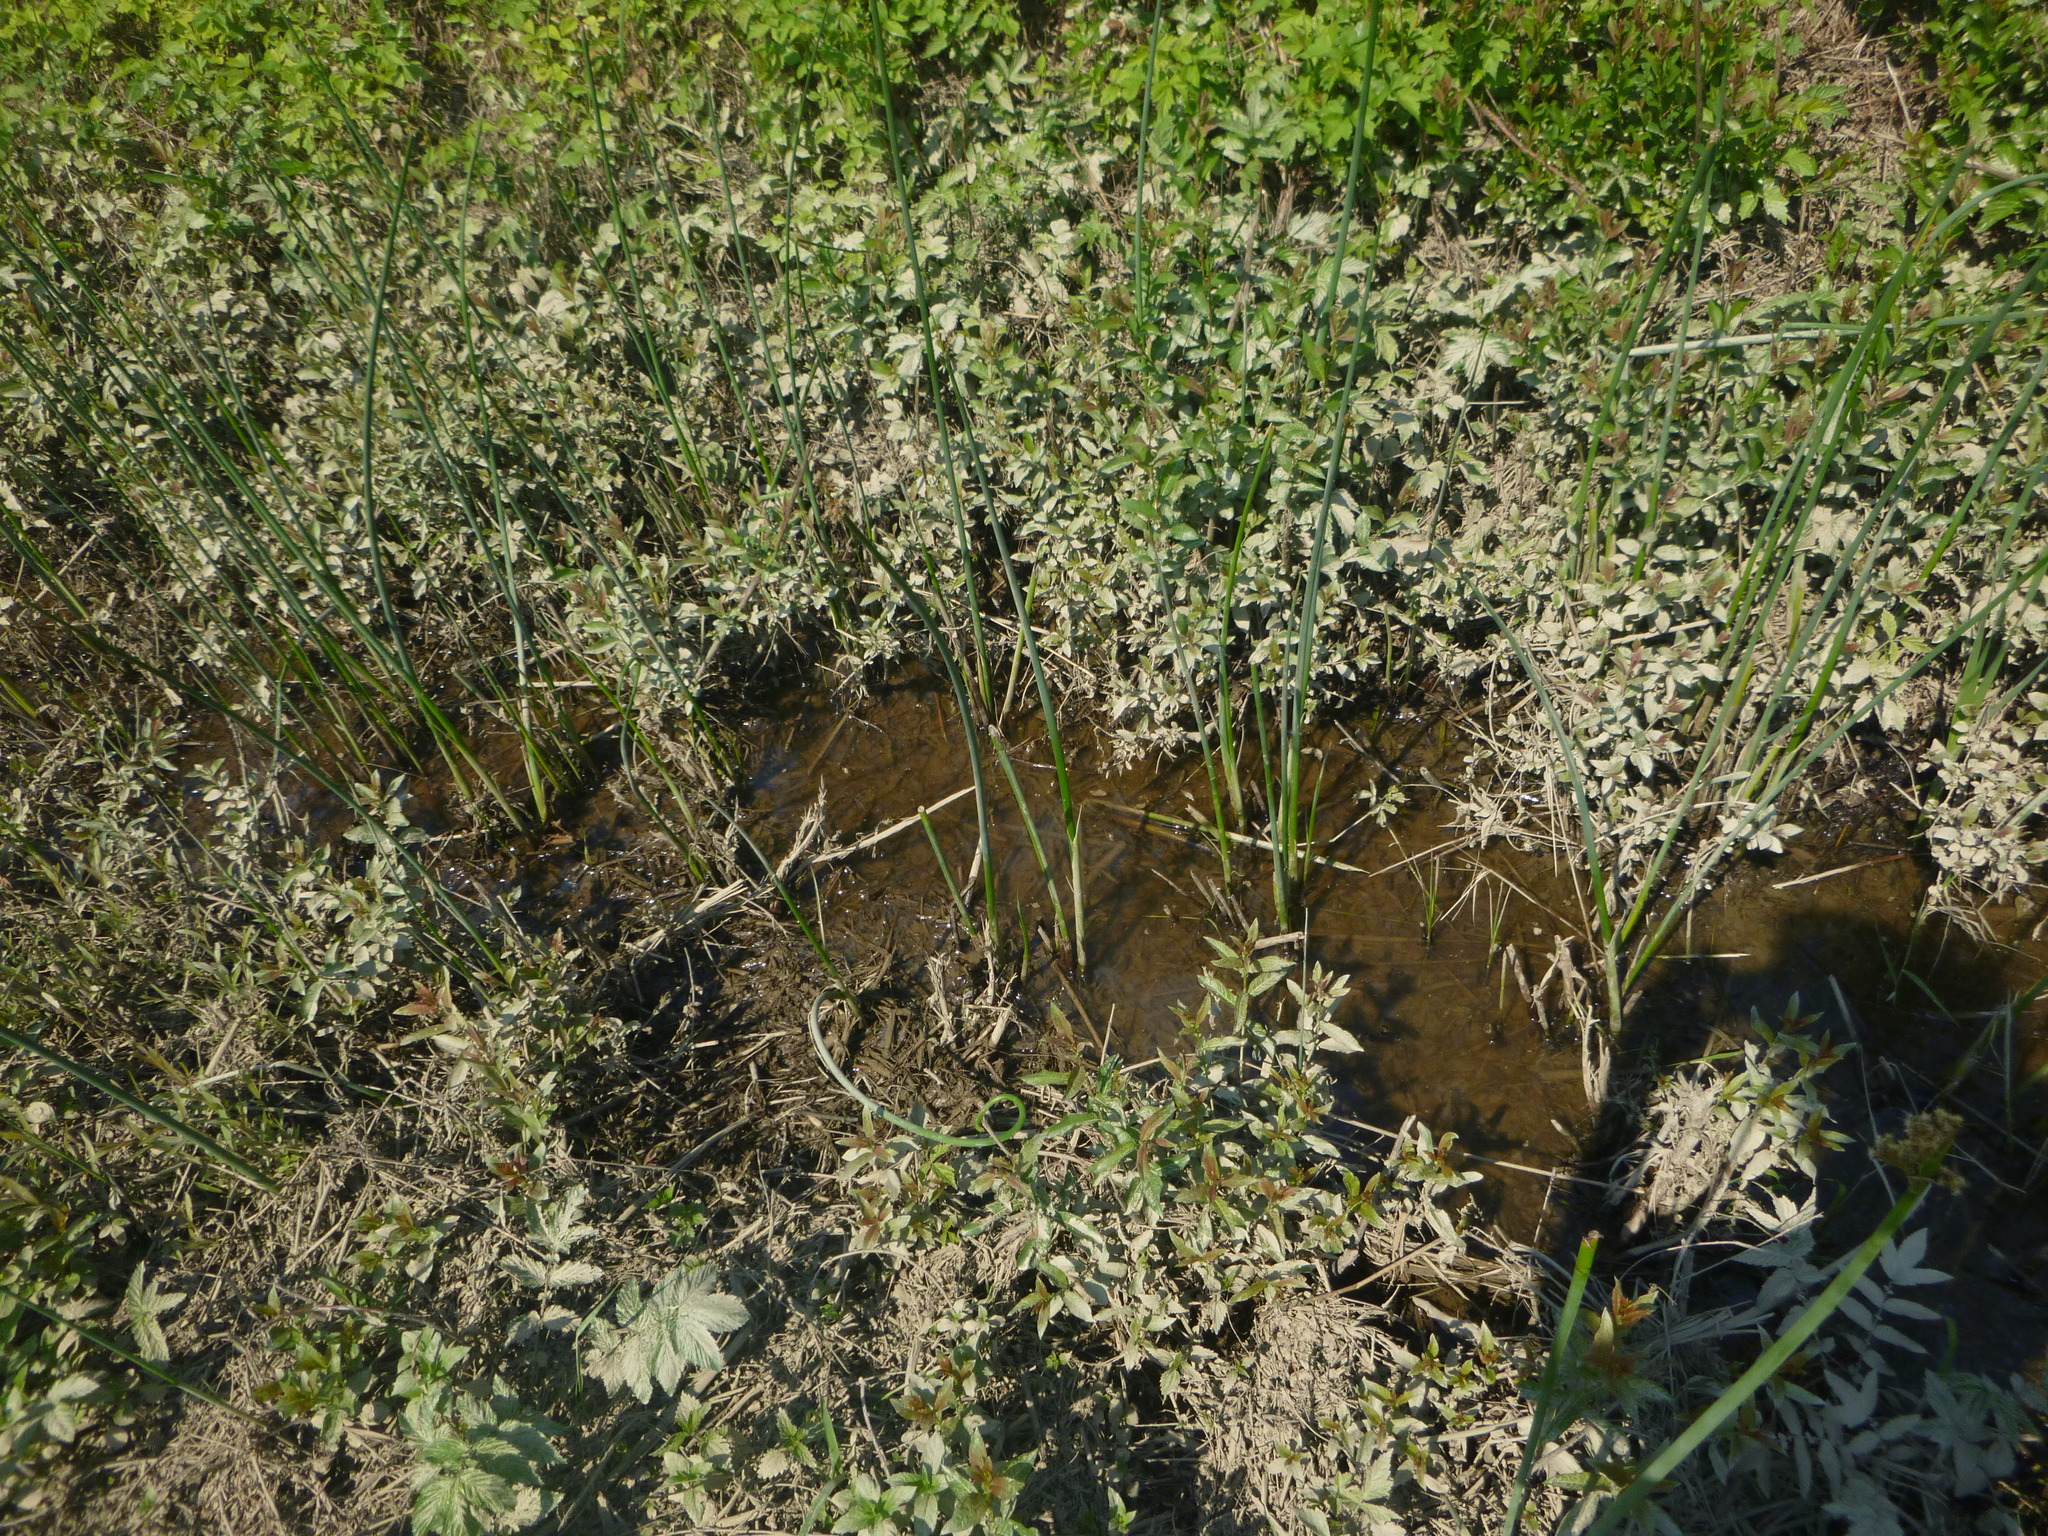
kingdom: Plantae
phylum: Tracheophyta
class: Liliopsida
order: Poales
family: Cyperaceae
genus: Schoenoplectus
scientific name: Schoenoplectus lacustris
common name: Common club-rush
